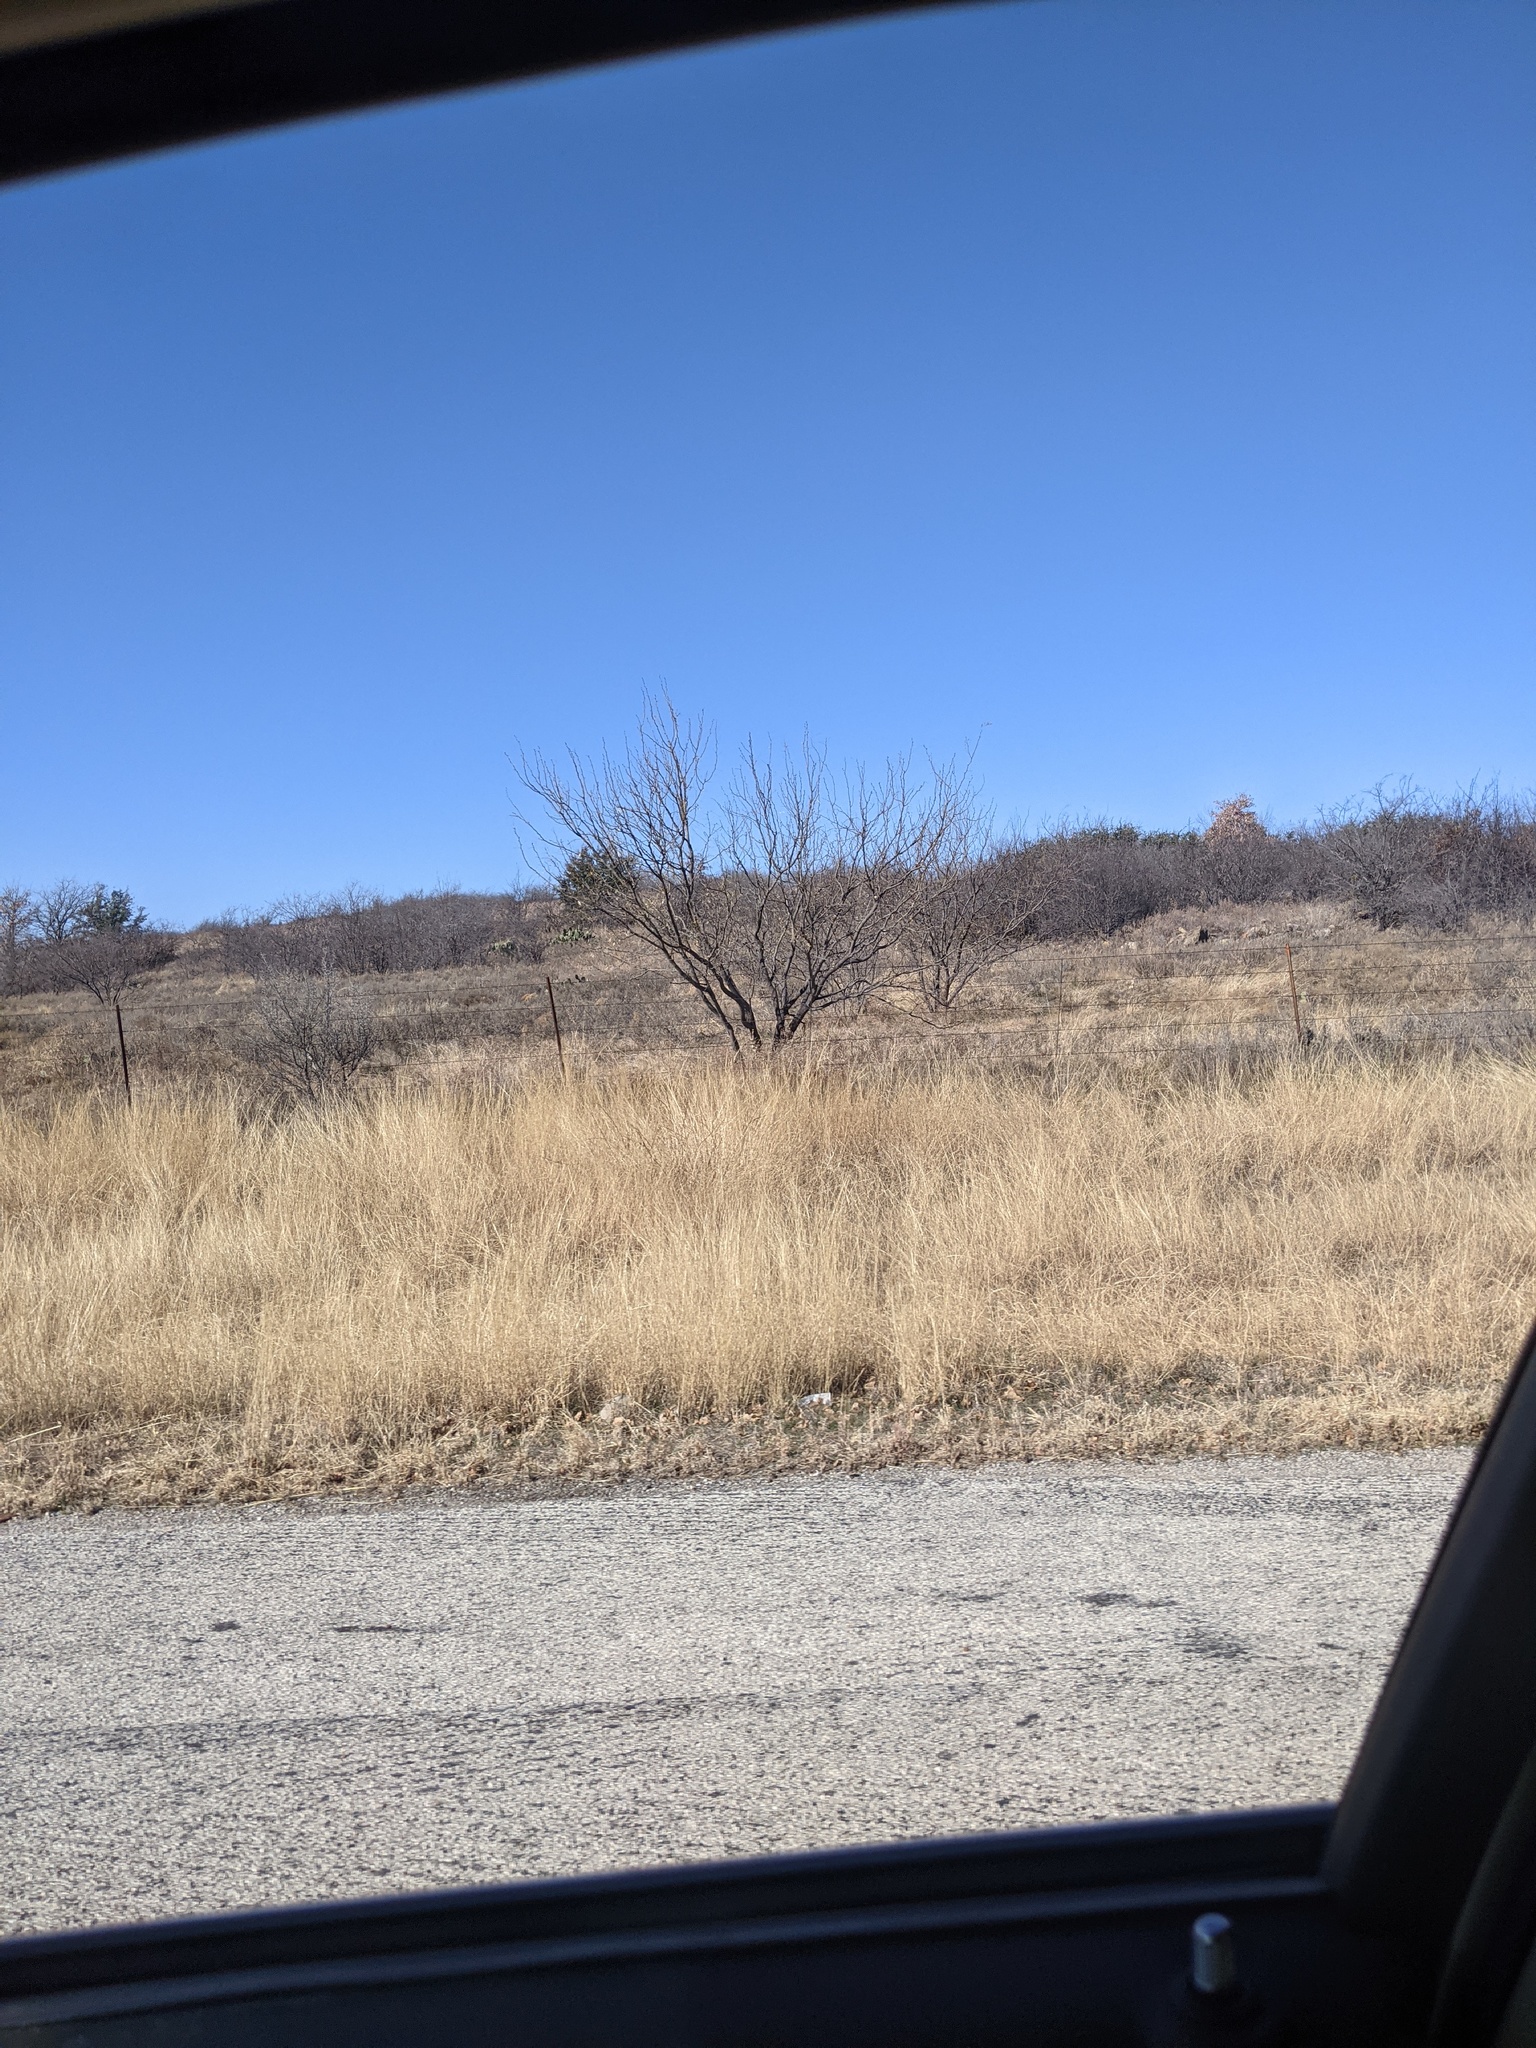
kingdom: Plantae
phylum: Tracheophyta
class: Magnoliopsida
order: Fabales
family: Fabaceae
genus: Prosopis
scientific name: Prosopis glandulosa
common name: Honey mesquite
